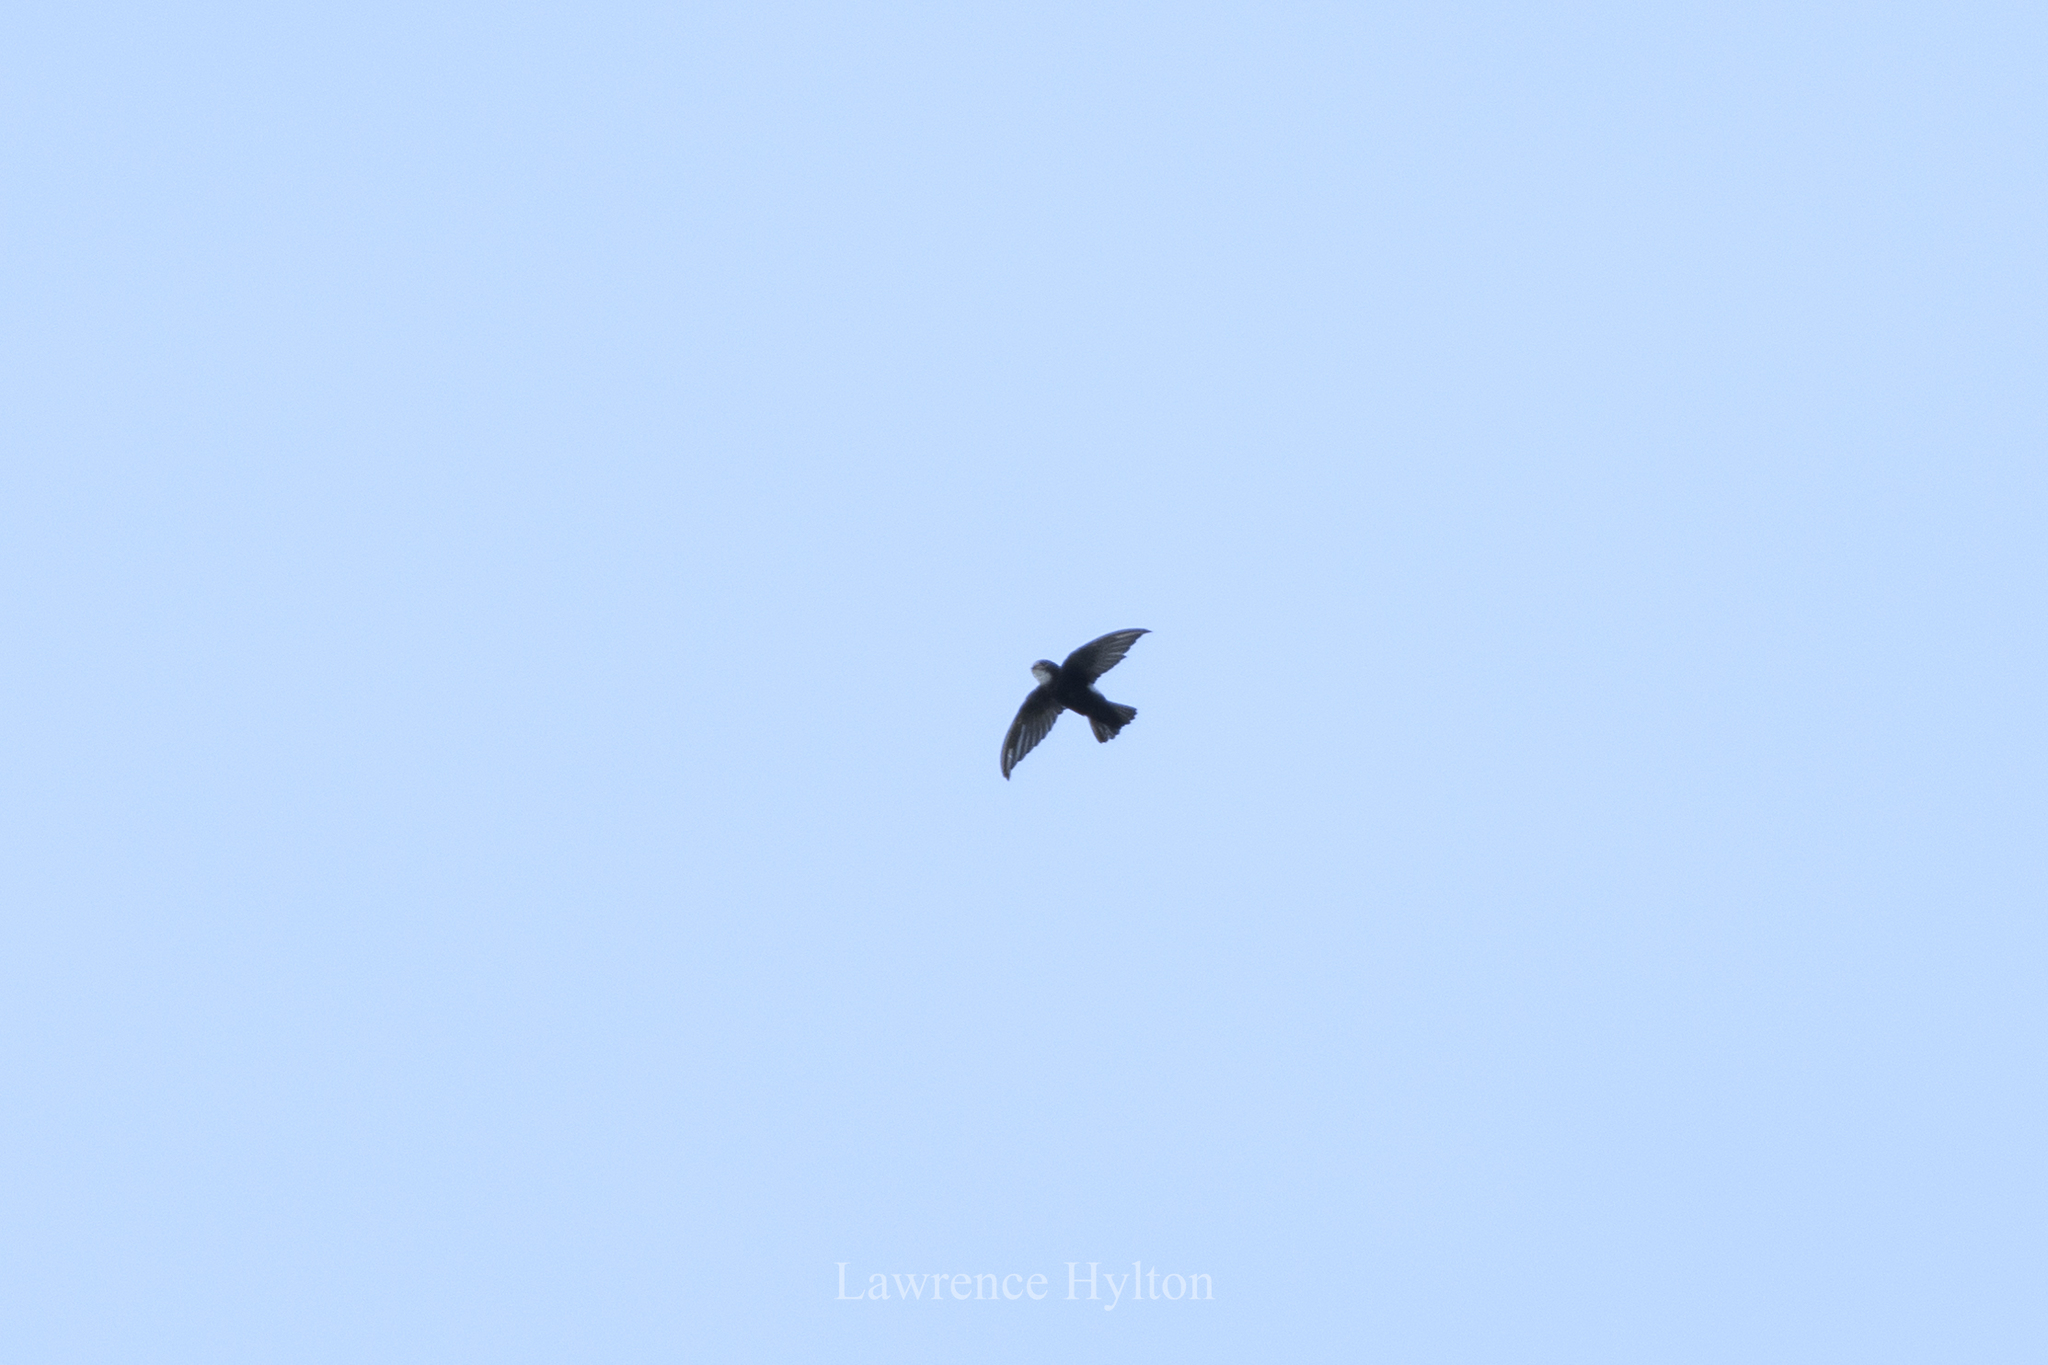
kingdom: Animalia
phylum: Chordata
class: Aves
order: Apodiformes
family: Apodidae
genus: Apus
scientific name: Apus nipalensis
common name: House swift
